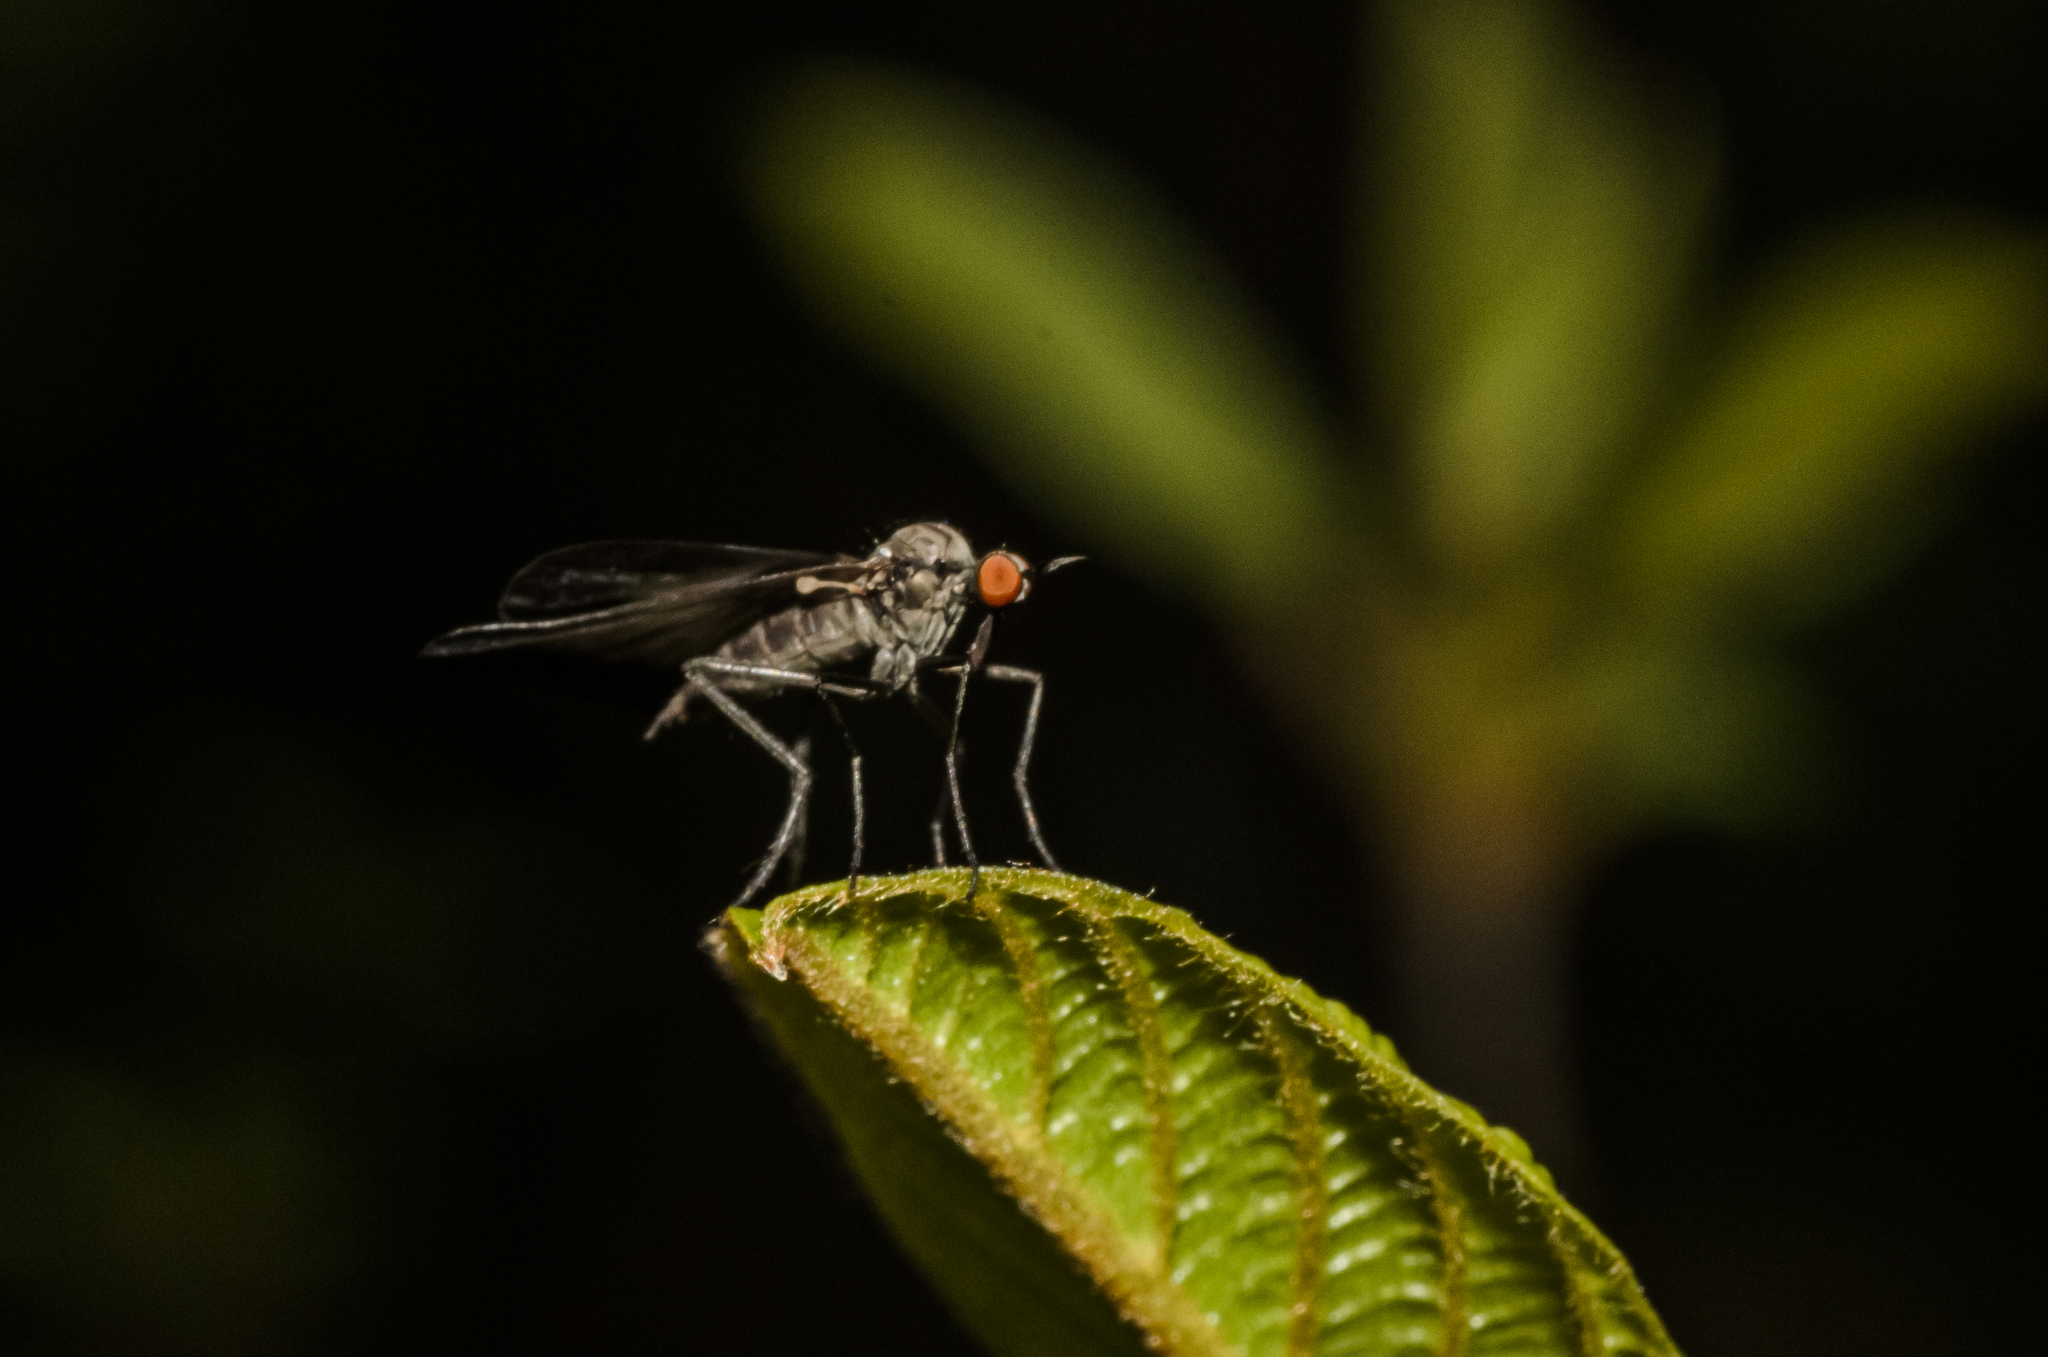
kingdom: Animalia
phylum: Arthropoda
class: Insecta
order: Diptera
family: Empididae
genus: Rhamphomyia
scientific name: Rhamphomyia marginata
